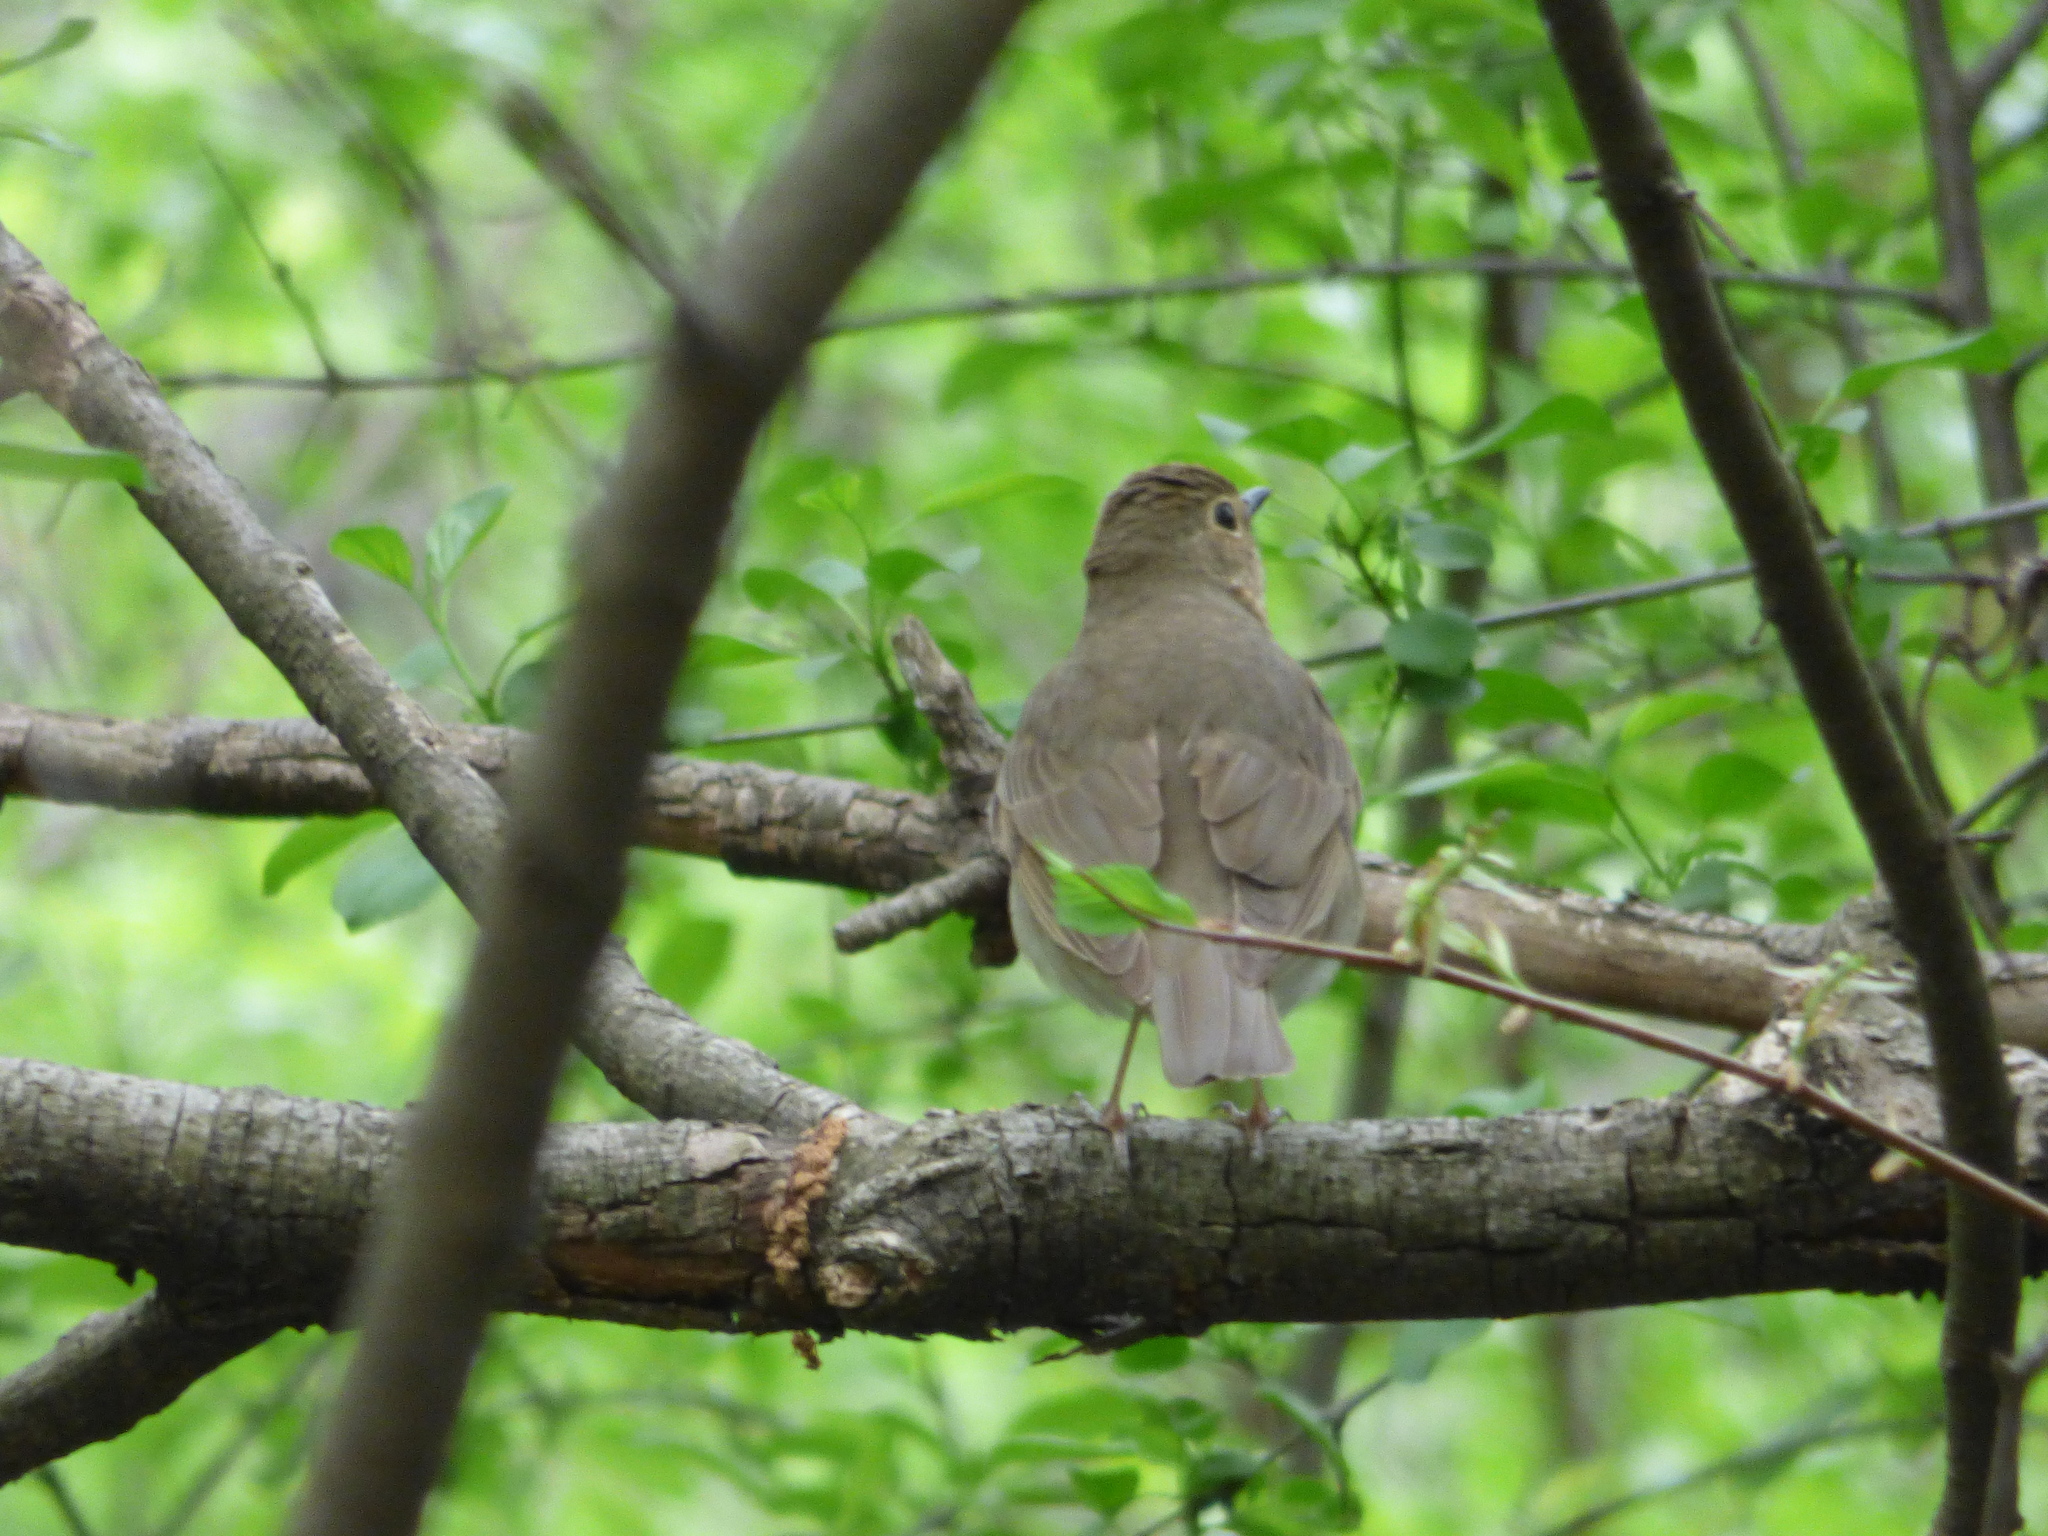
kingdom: Animalia
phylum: Chordata
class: Aves
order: Passeriformes
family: Turdidae
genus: Catharus
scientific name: Catharus ustulatus
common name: Swainson's thrush
